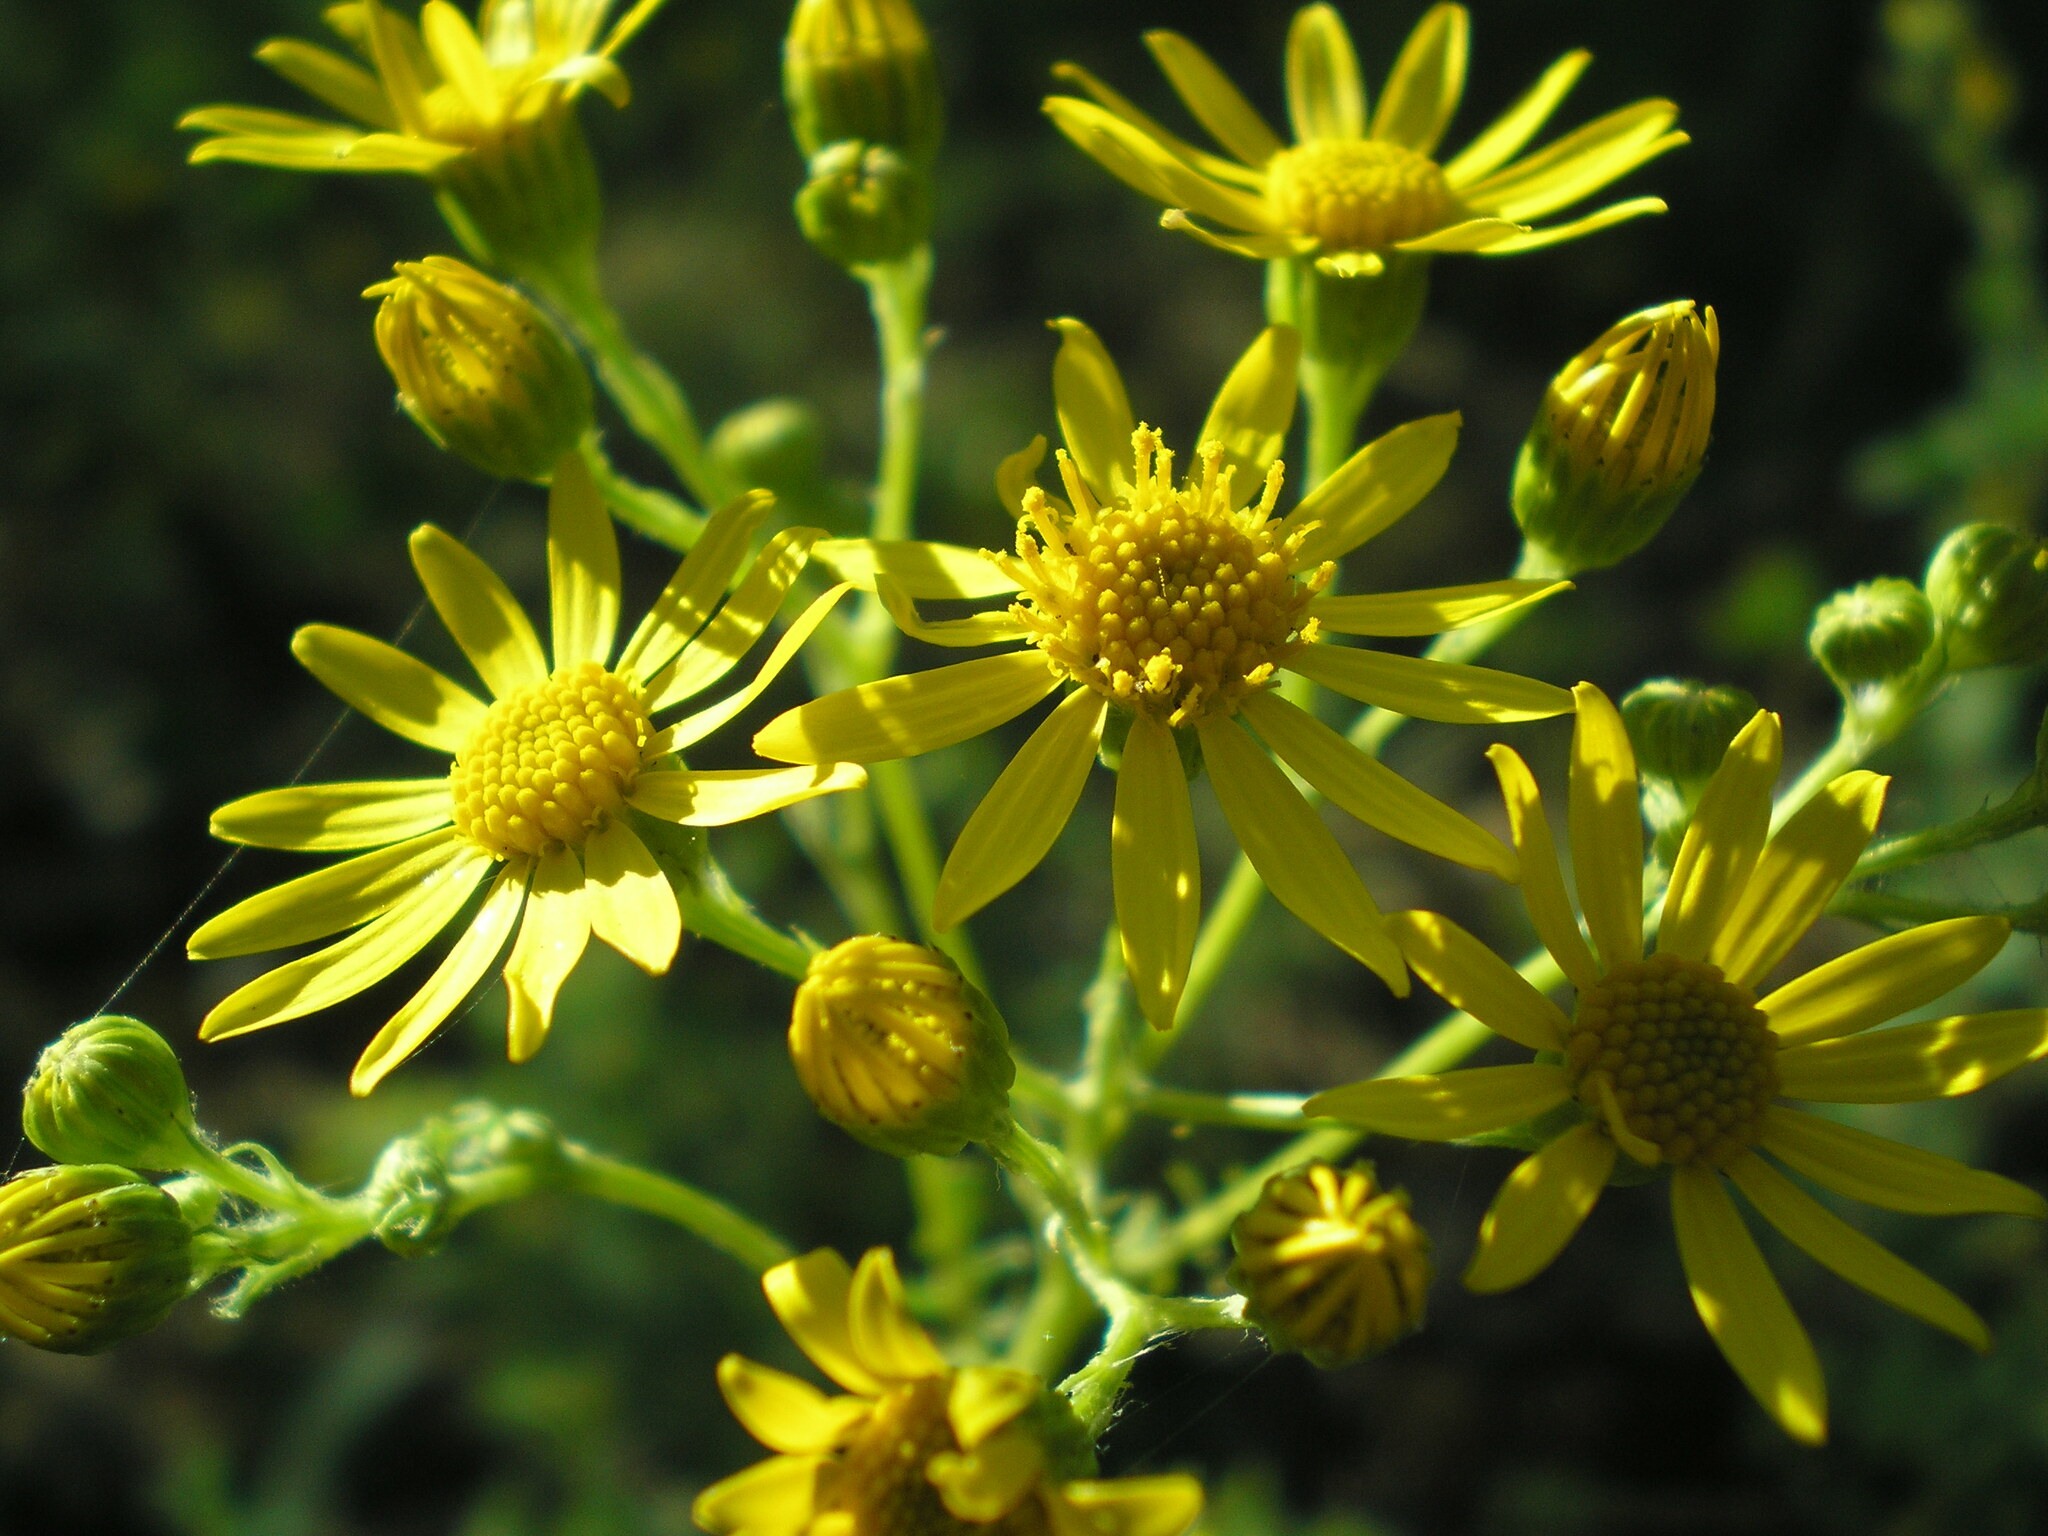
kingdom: Plantae
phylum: Tracheophyta
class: Magnoliopsida
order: Asterales
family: Asteraceae
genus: Jacobaea
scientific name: Jacobaea vulgaris
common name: Stinking willie
